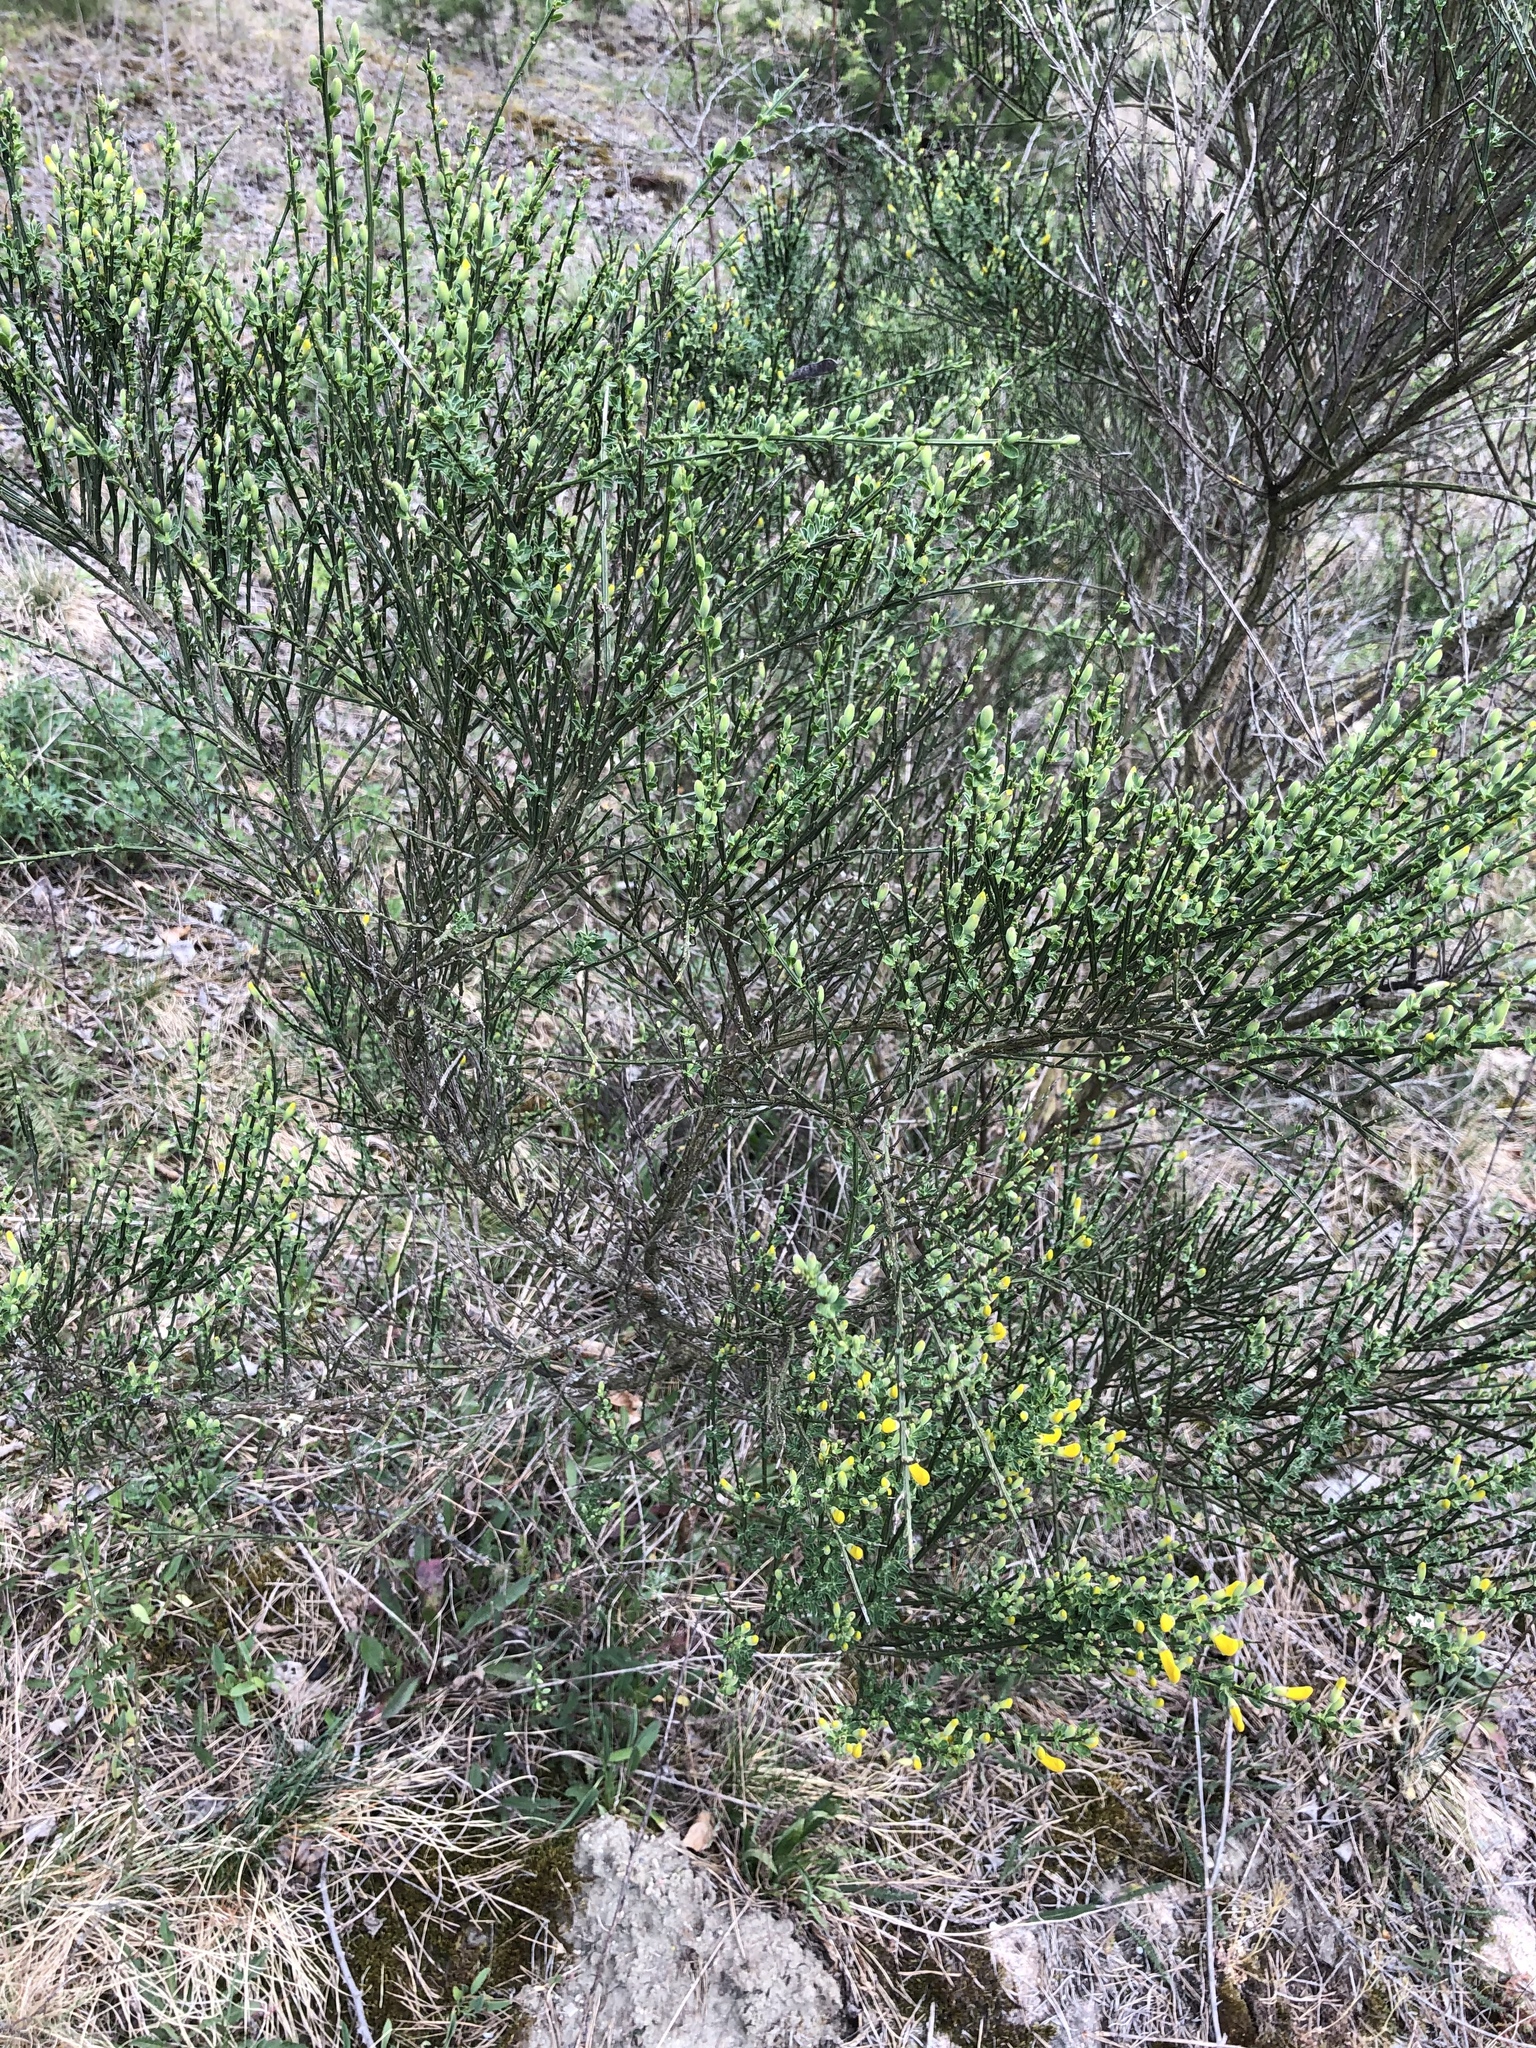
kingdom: Plantae
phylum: Tracheophyta
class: Magnoliopsida
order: Fabales
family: Fabaceae
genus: Cytisus
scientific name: Cytisus scoparius
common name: Scotch broom
